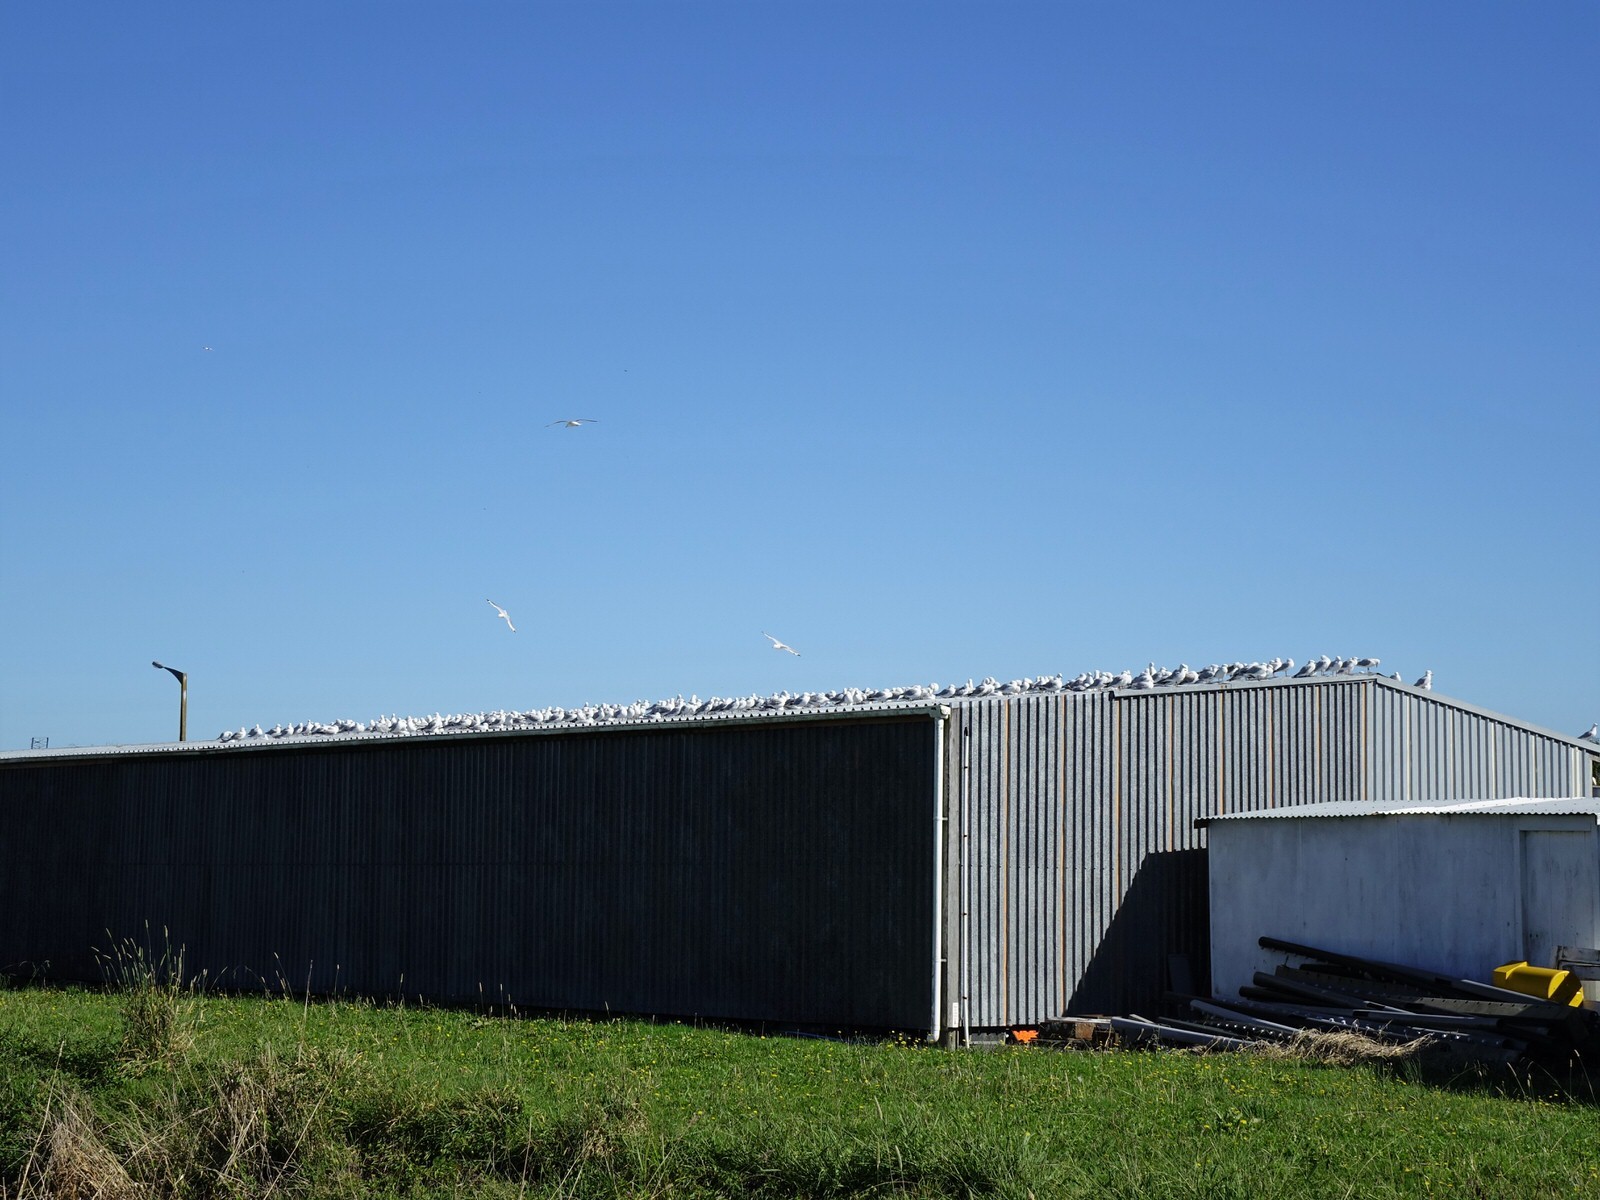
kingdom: Animalia
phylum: Chordata
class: Aves
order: Charadriiformes
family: Laridae
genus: Chroicocephalus
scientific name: Chroicocephalus novaehollandiae
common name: Silver gull
